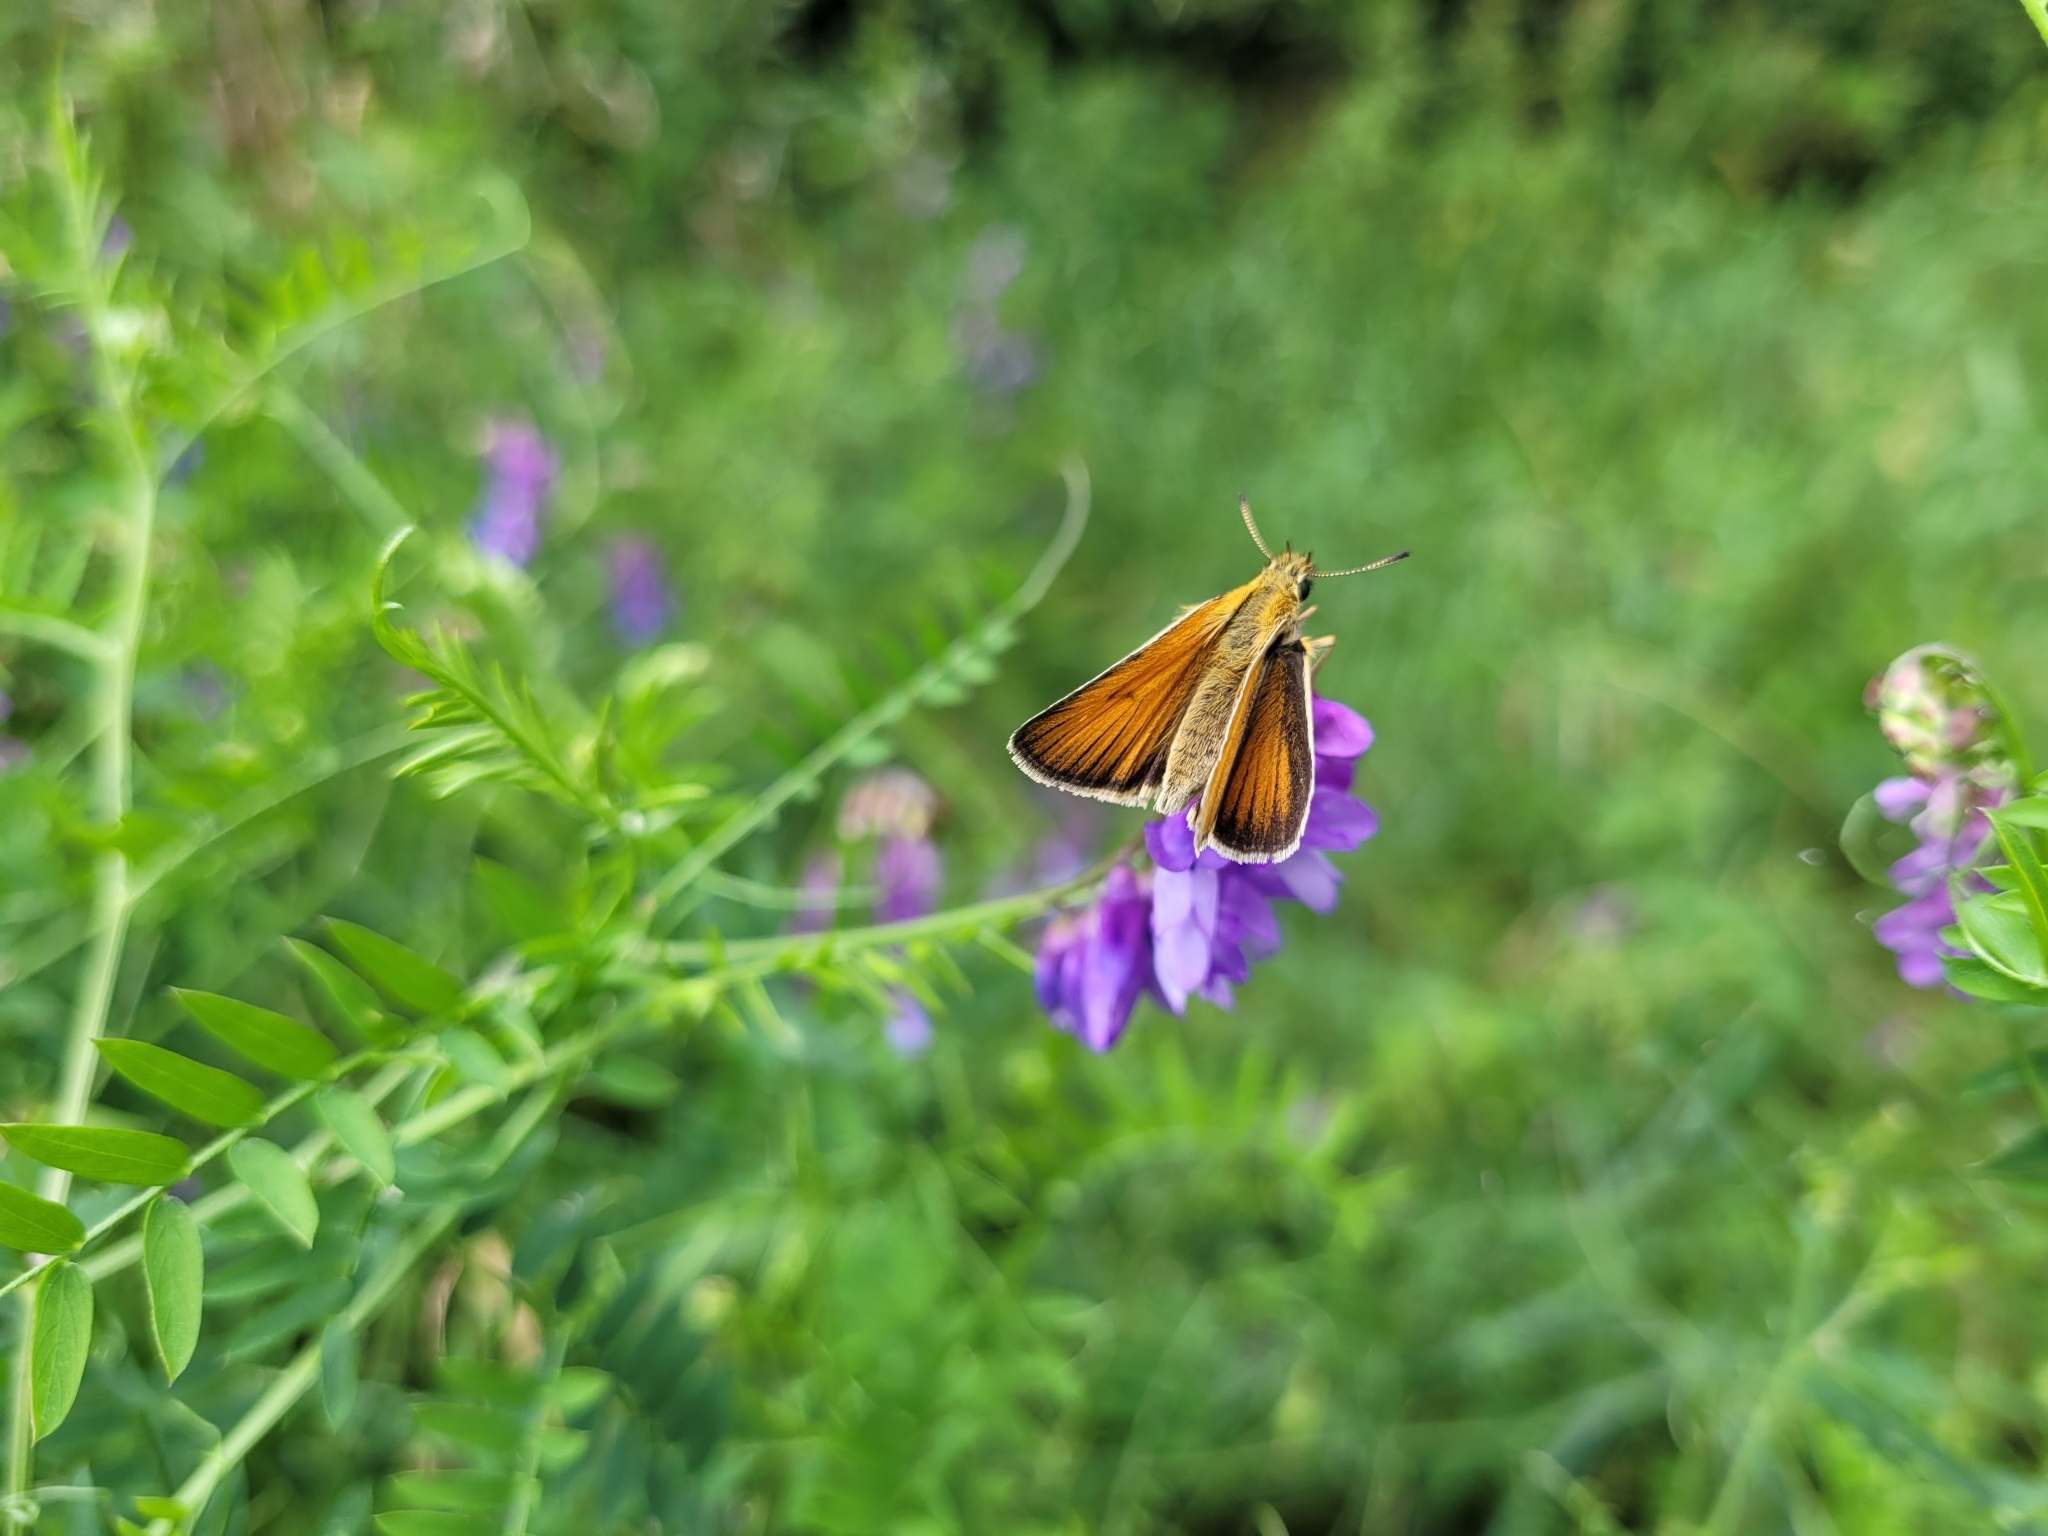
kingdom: Animalia
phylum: Arthropoda
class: Insecta
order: Lepidoptera
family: Hesperiidae
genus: Thymelicus
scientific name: Thymelicus lineola
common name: Essex skipper
